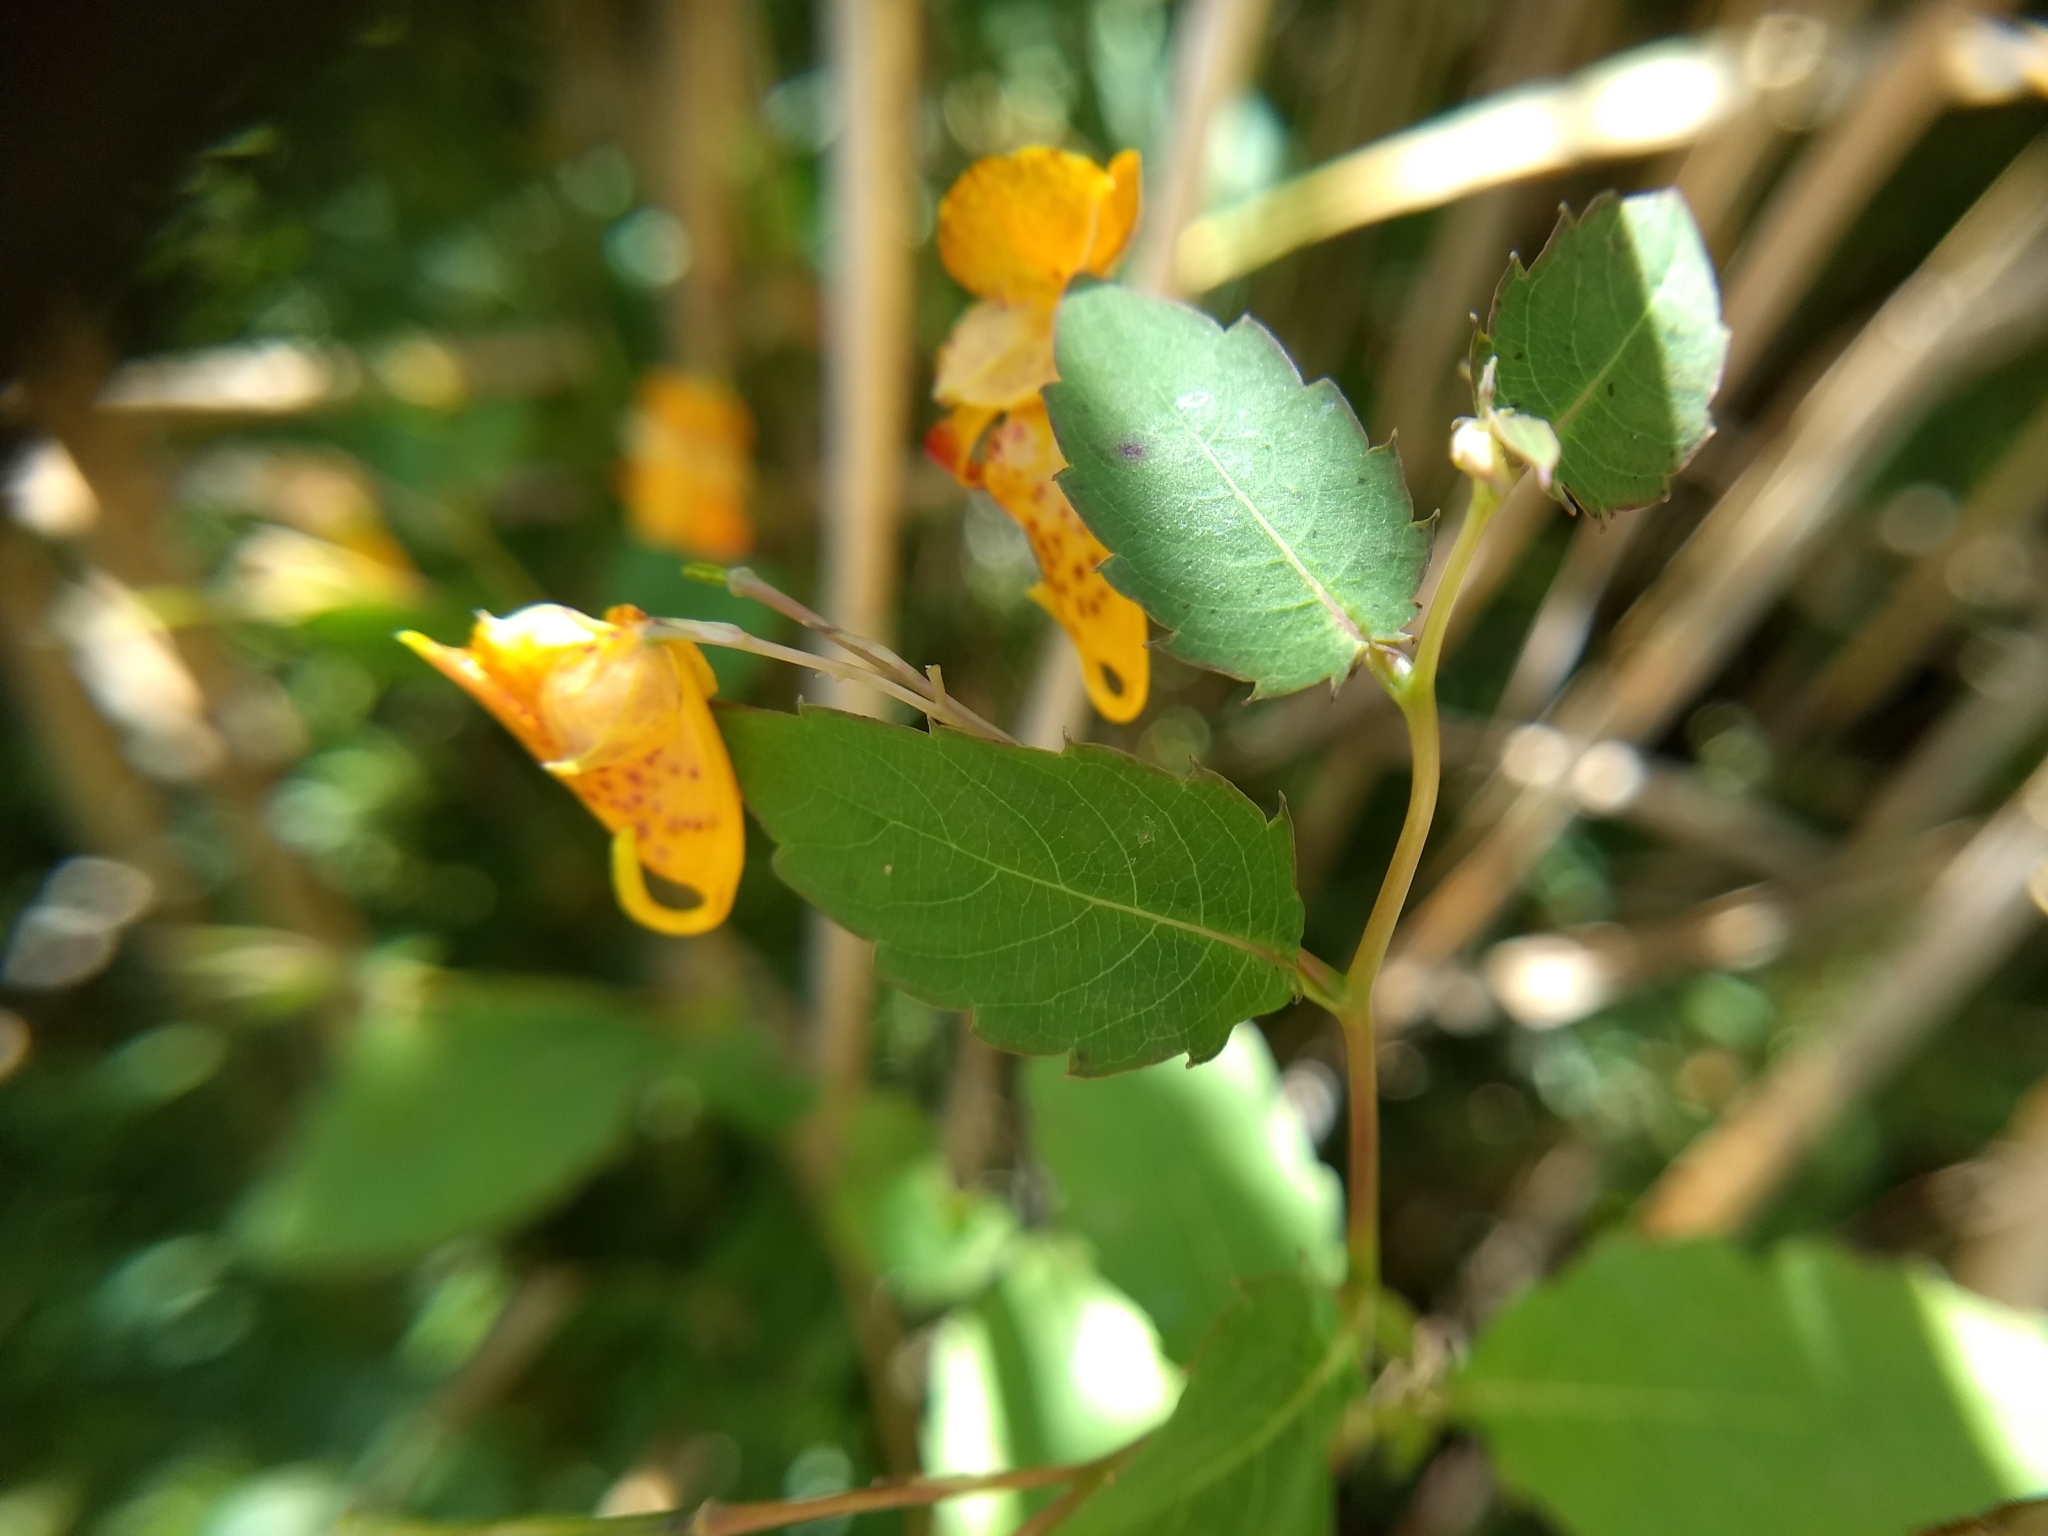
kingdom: Plantae
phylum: Tracheophyta
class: Magnoliopsida
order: Ericales
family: Balsaminaceae
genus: Impatiens
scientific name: Impatiens capensis
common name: Orange balsam
